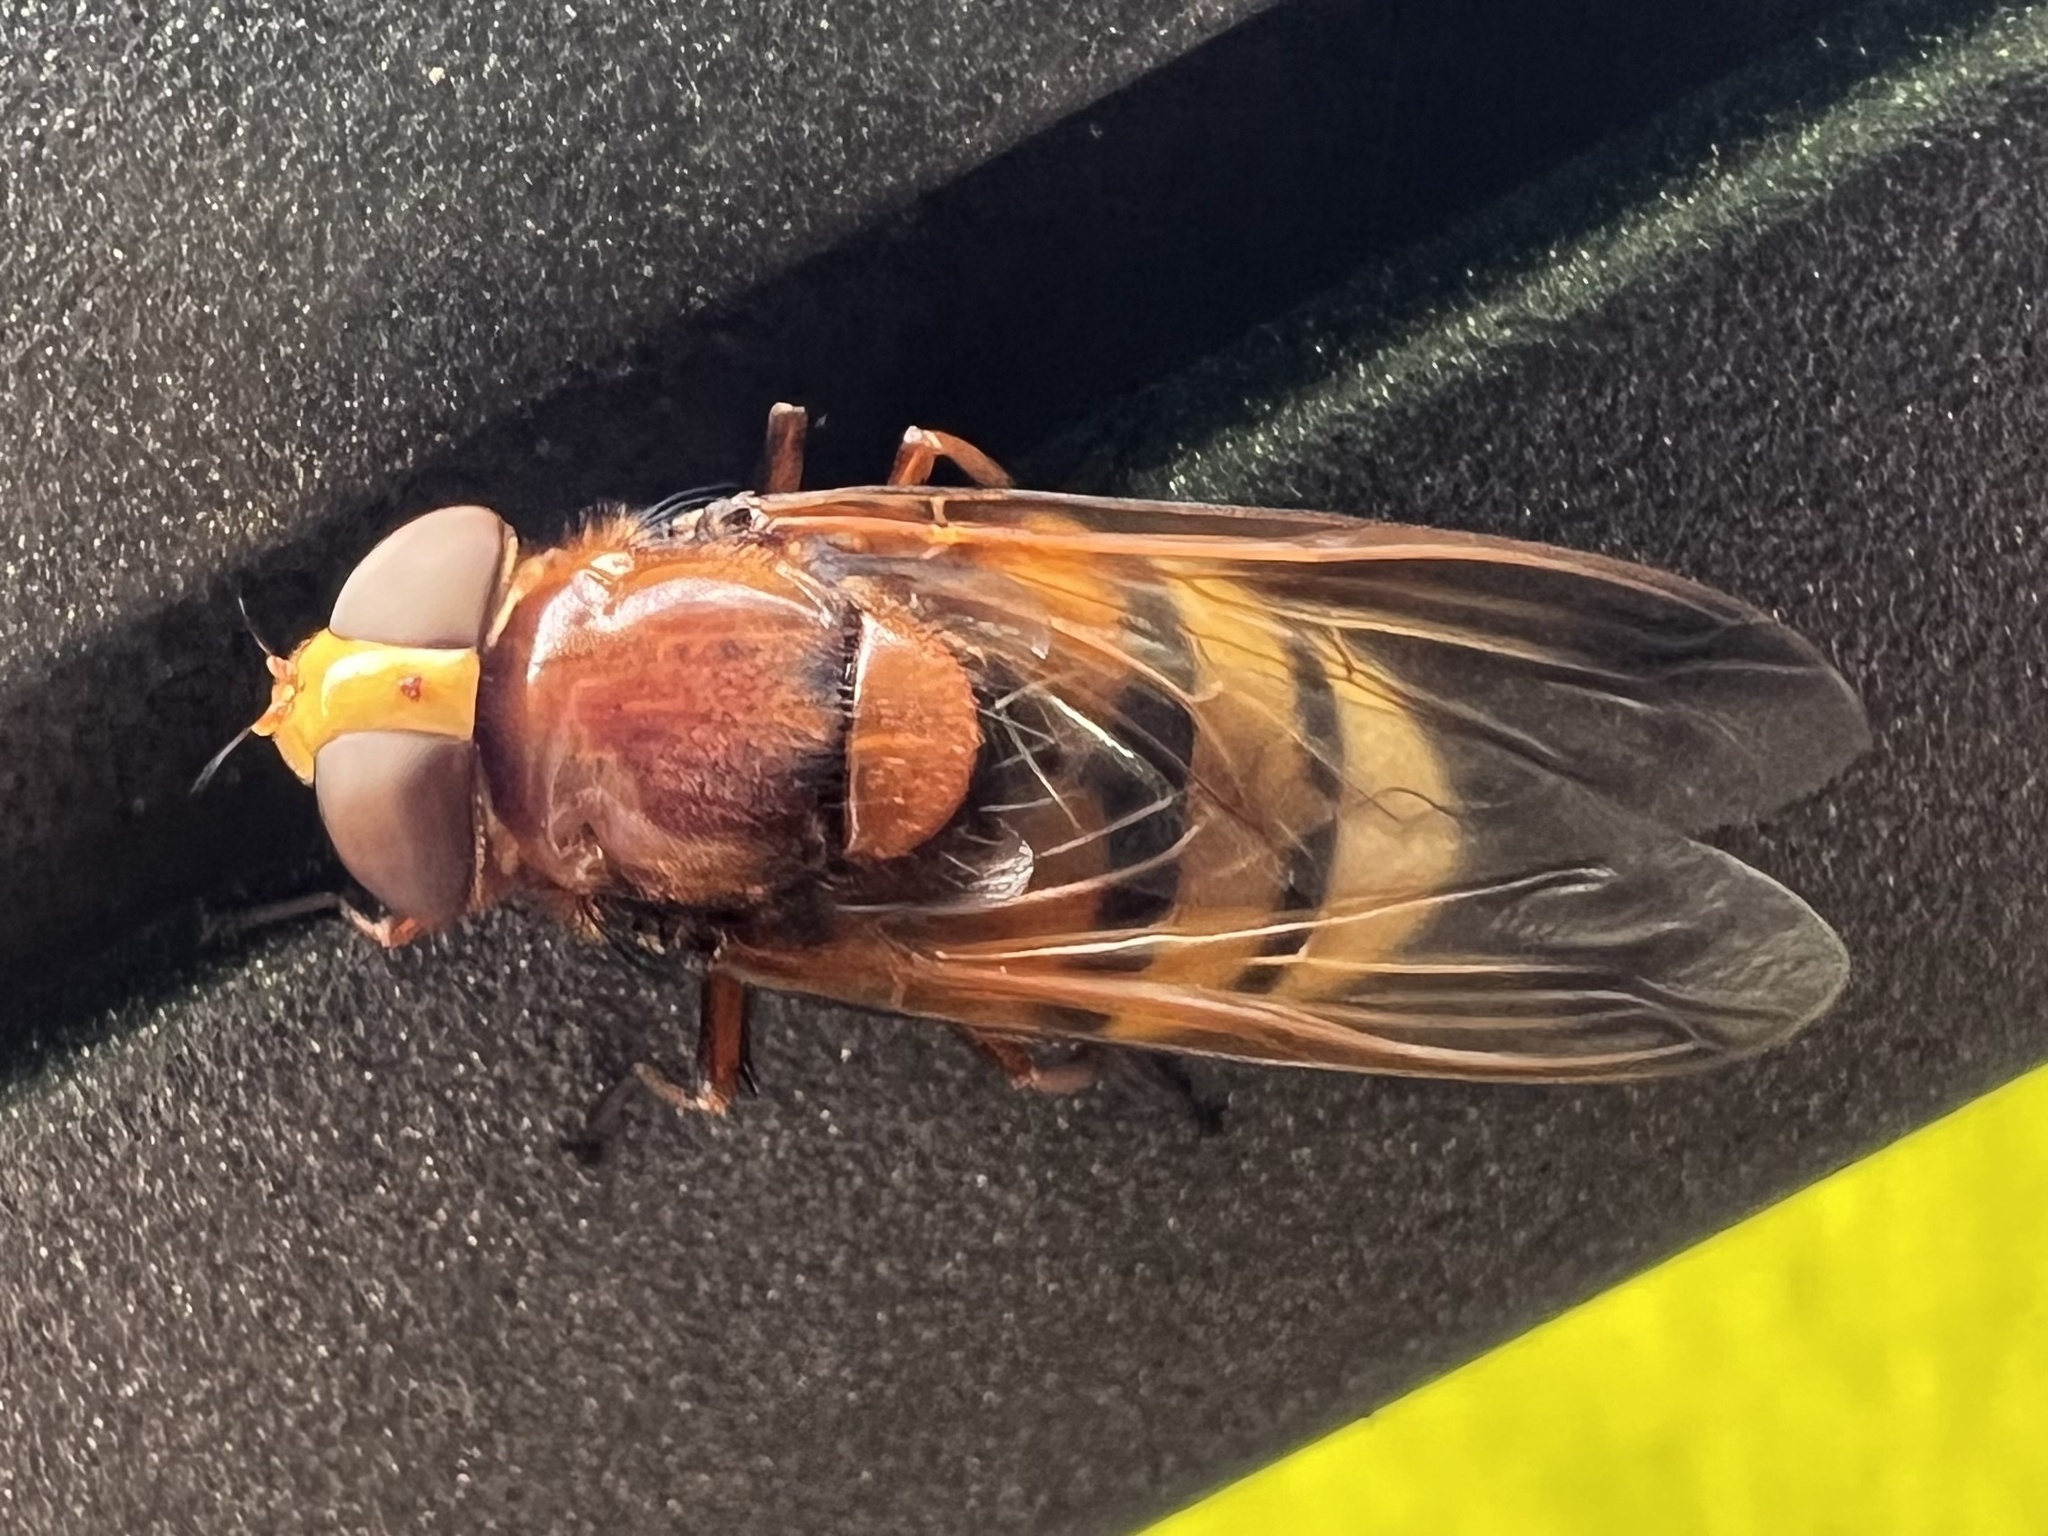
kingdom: Animalia
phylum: Arthropoda
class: Insecta
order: Diptera
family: Syrphidae
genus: Volucella
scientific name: Volucella zonaria
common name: Hornet hoverfly
